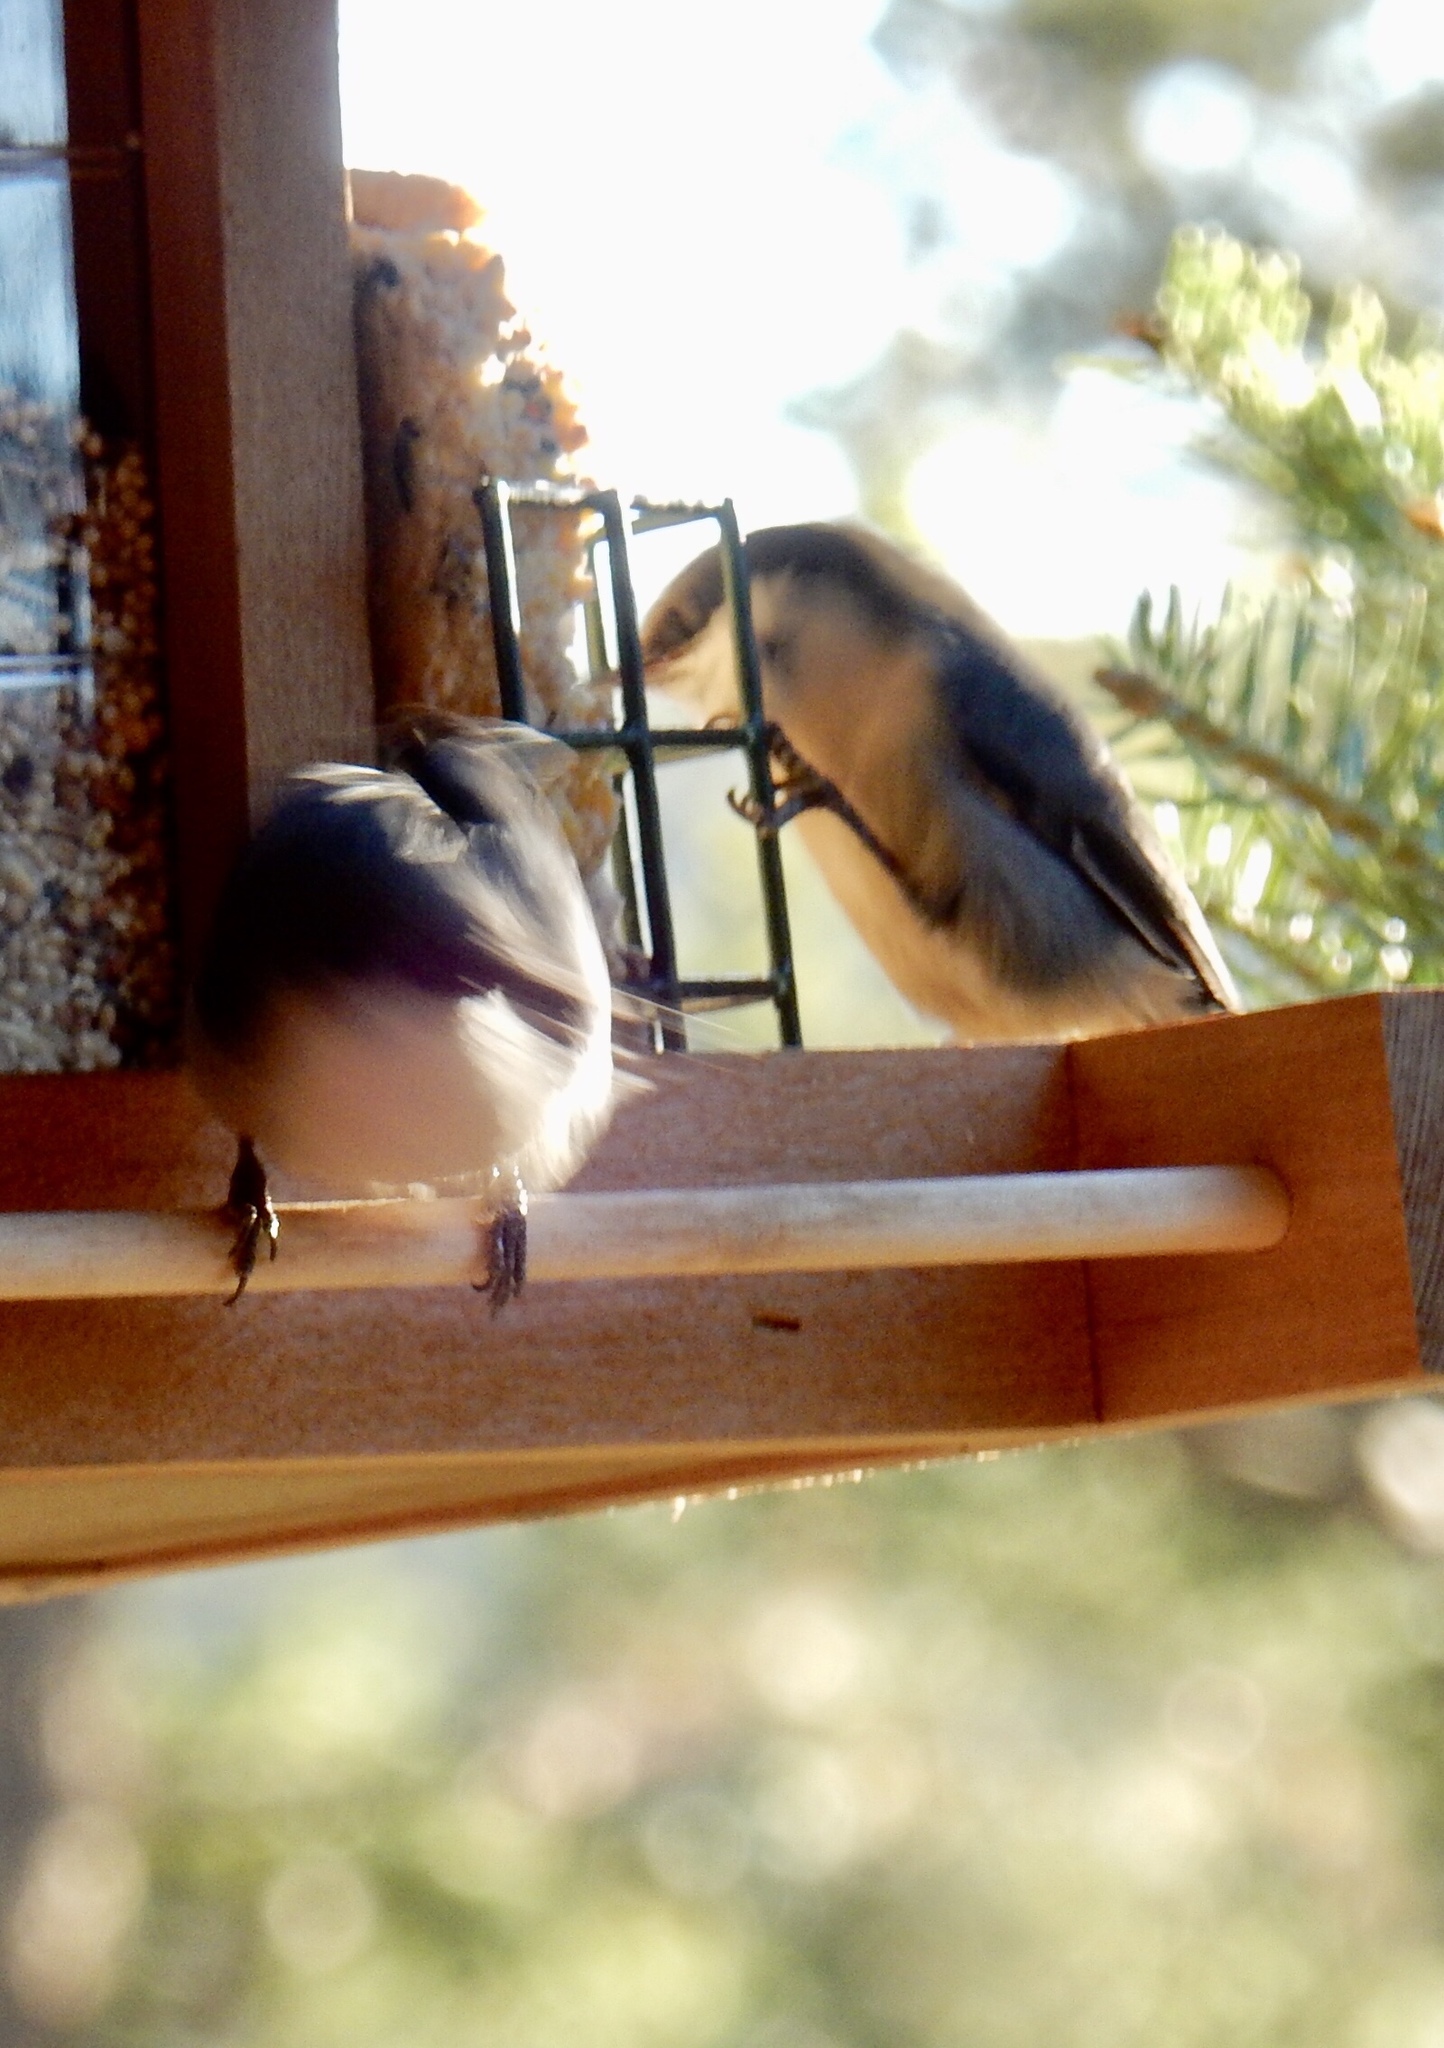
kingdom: Animalia
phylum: Chordata
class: Aves
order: Passeriformes
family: Sittidae
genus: Sitta
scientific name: Sitta pygmaea
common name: Pygmy nuthatch
